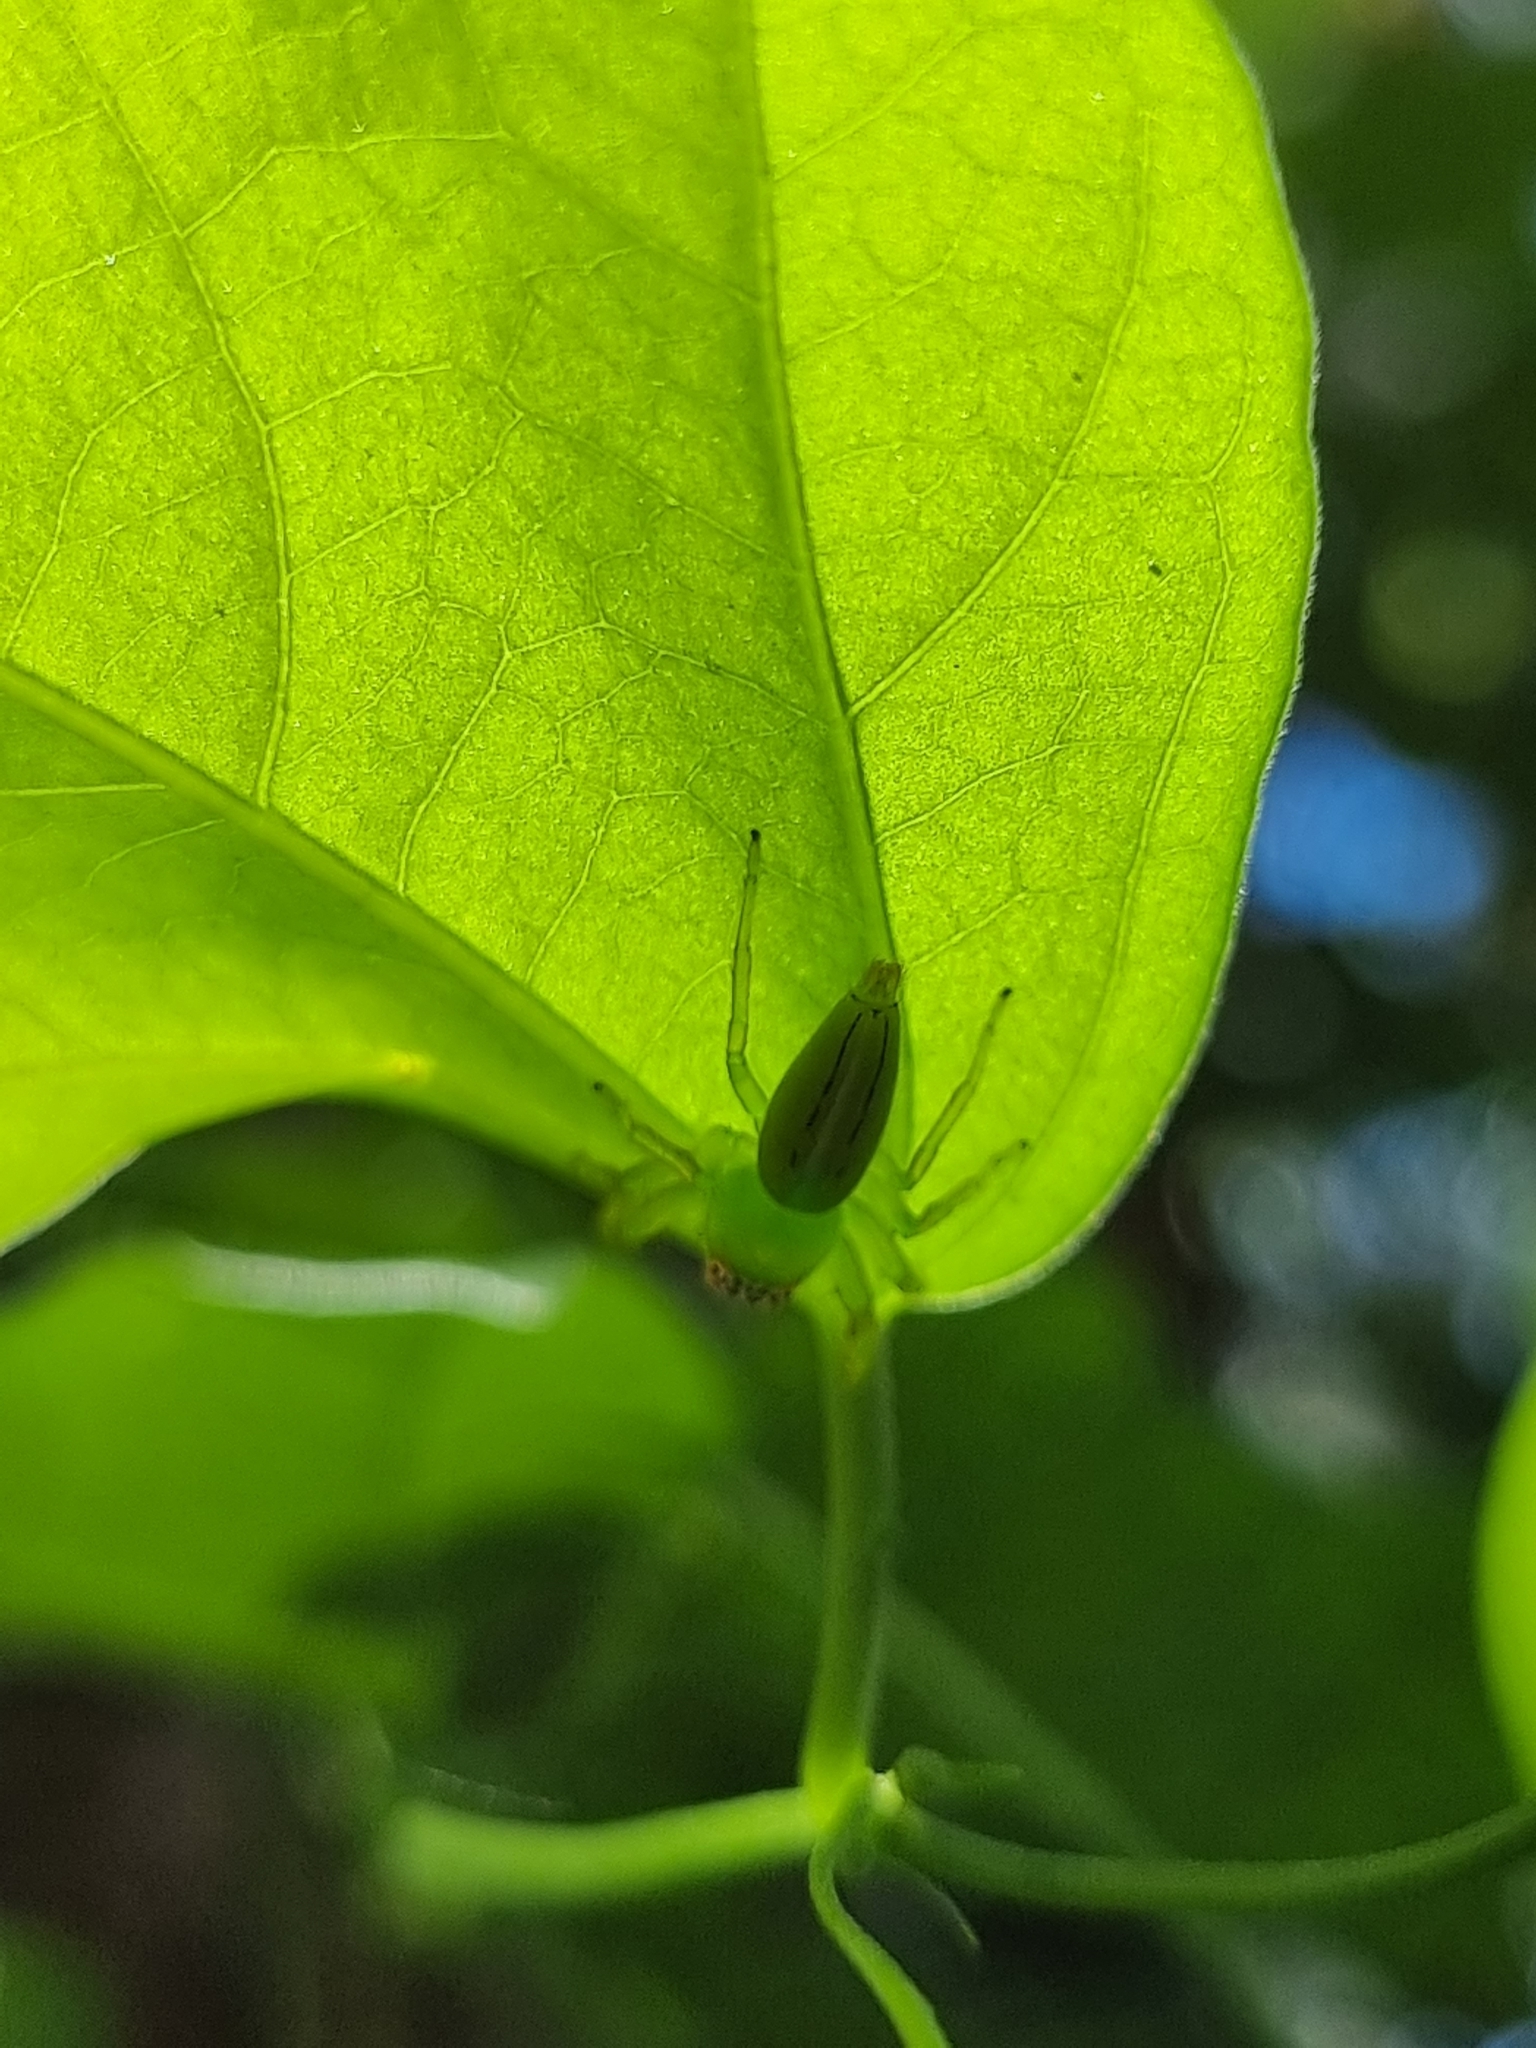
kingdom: Animalia
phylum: Arthropoda
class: Arachnida
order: Araneae
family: Salticidae
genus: Mopsus
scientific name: Mopsus mormon
